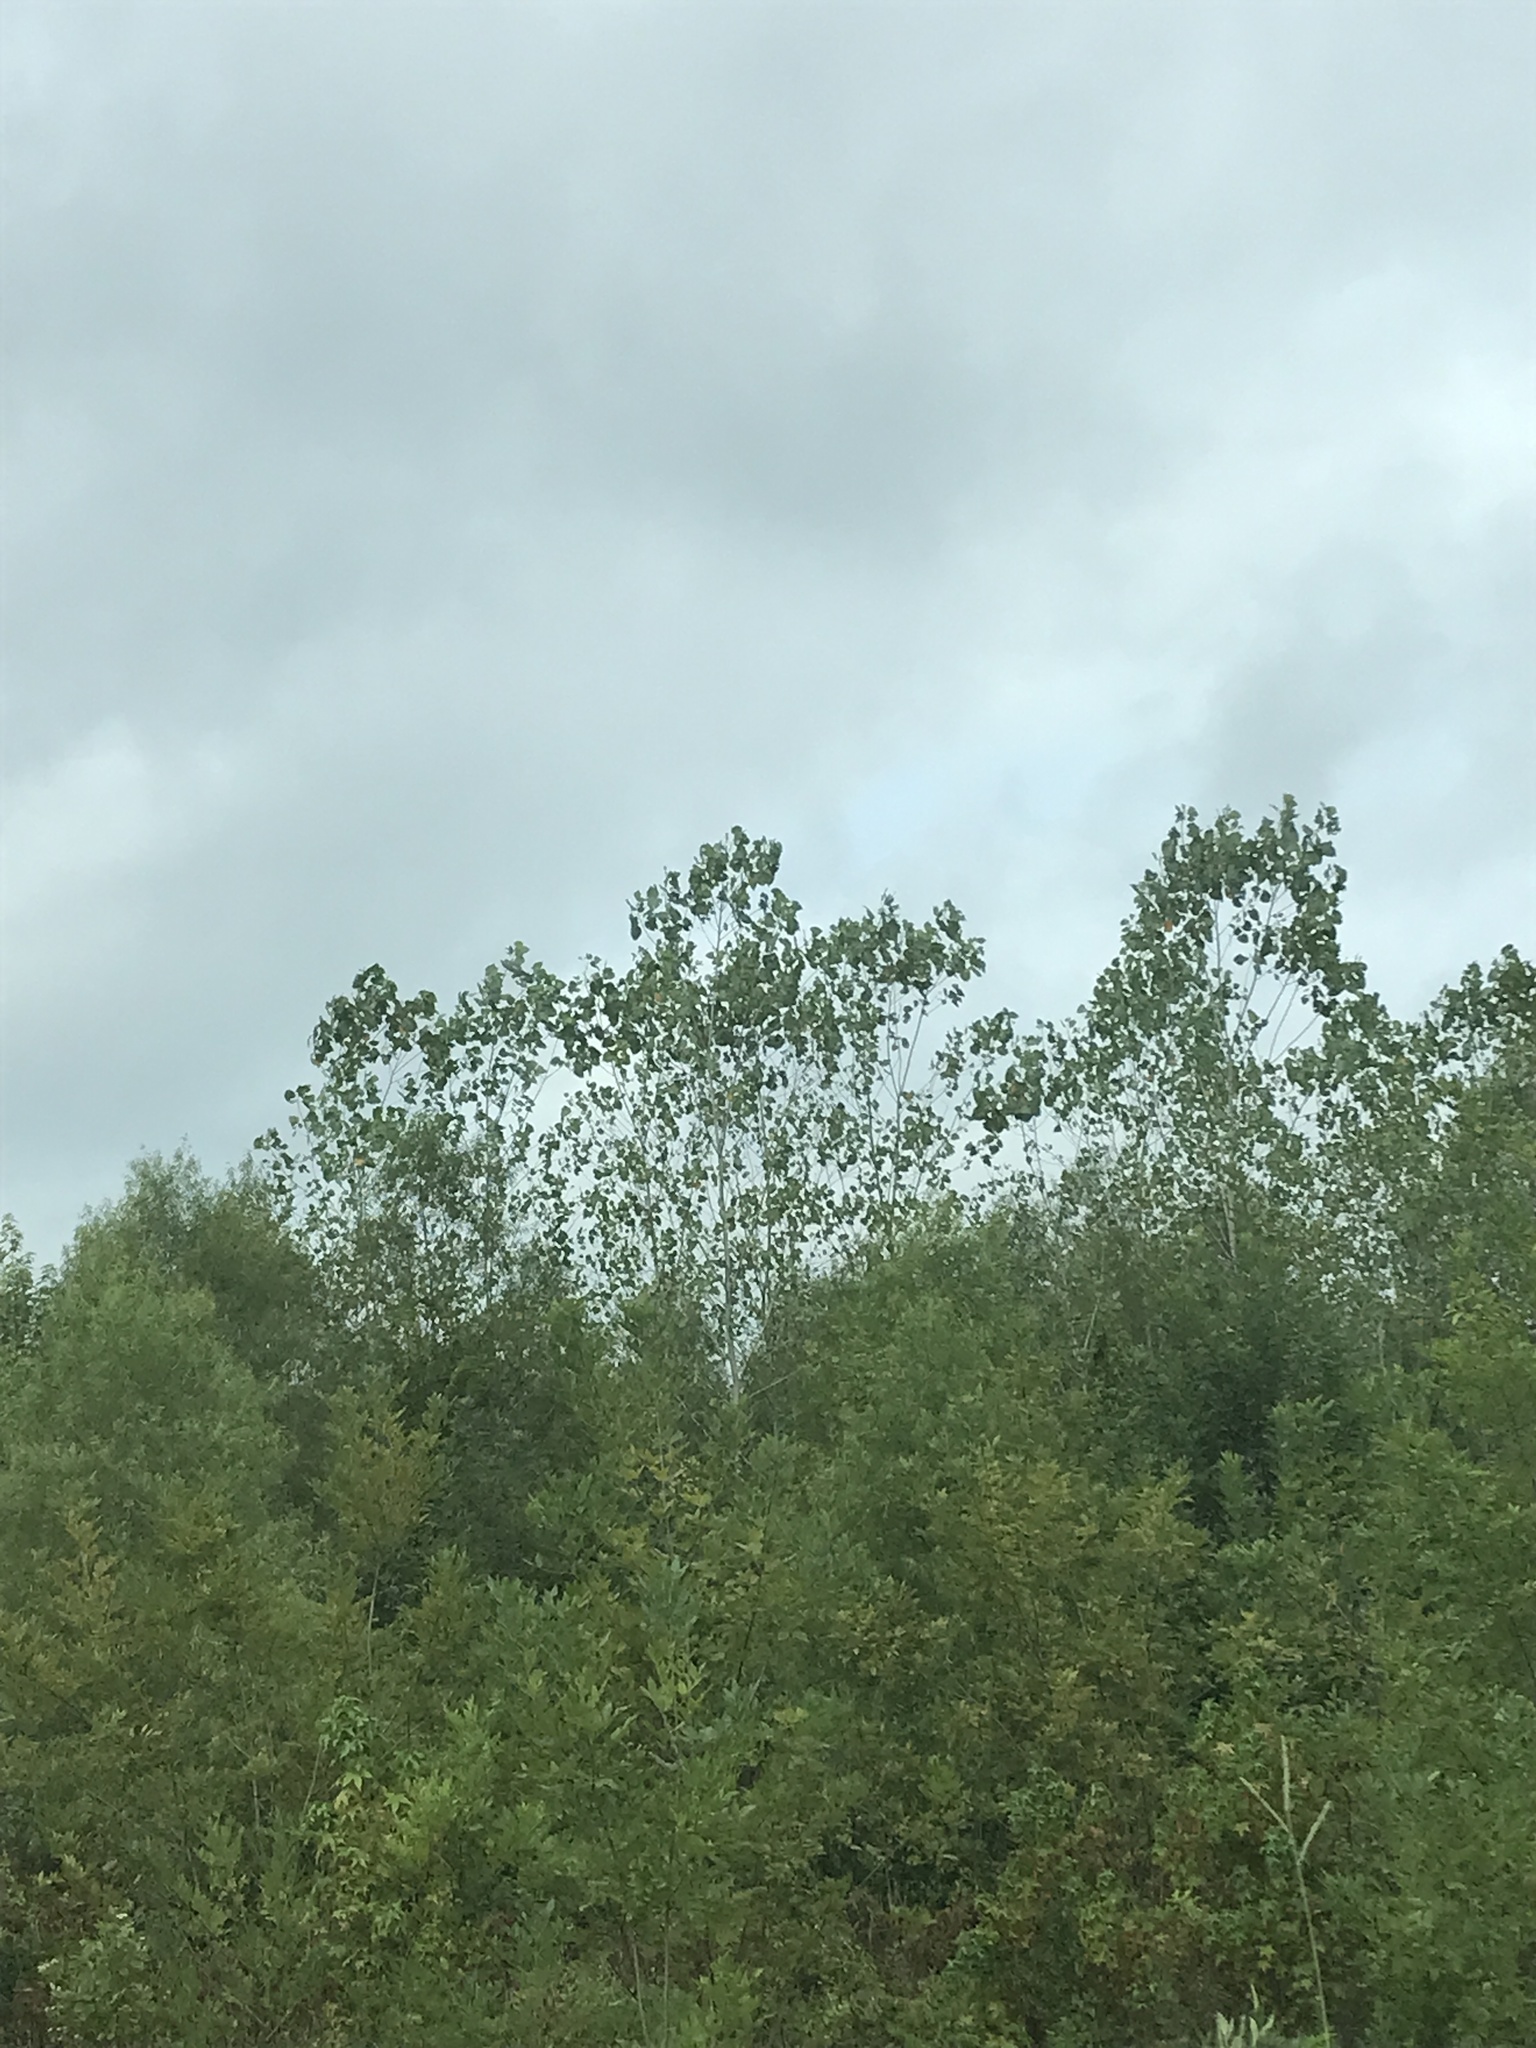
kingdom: Plantae
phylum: Tracheophyta
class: Magnoliopsida
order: Malpighiales
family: Salicaceae
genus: Populus
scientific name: Populus deltoides
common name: Eastern cottonwood
